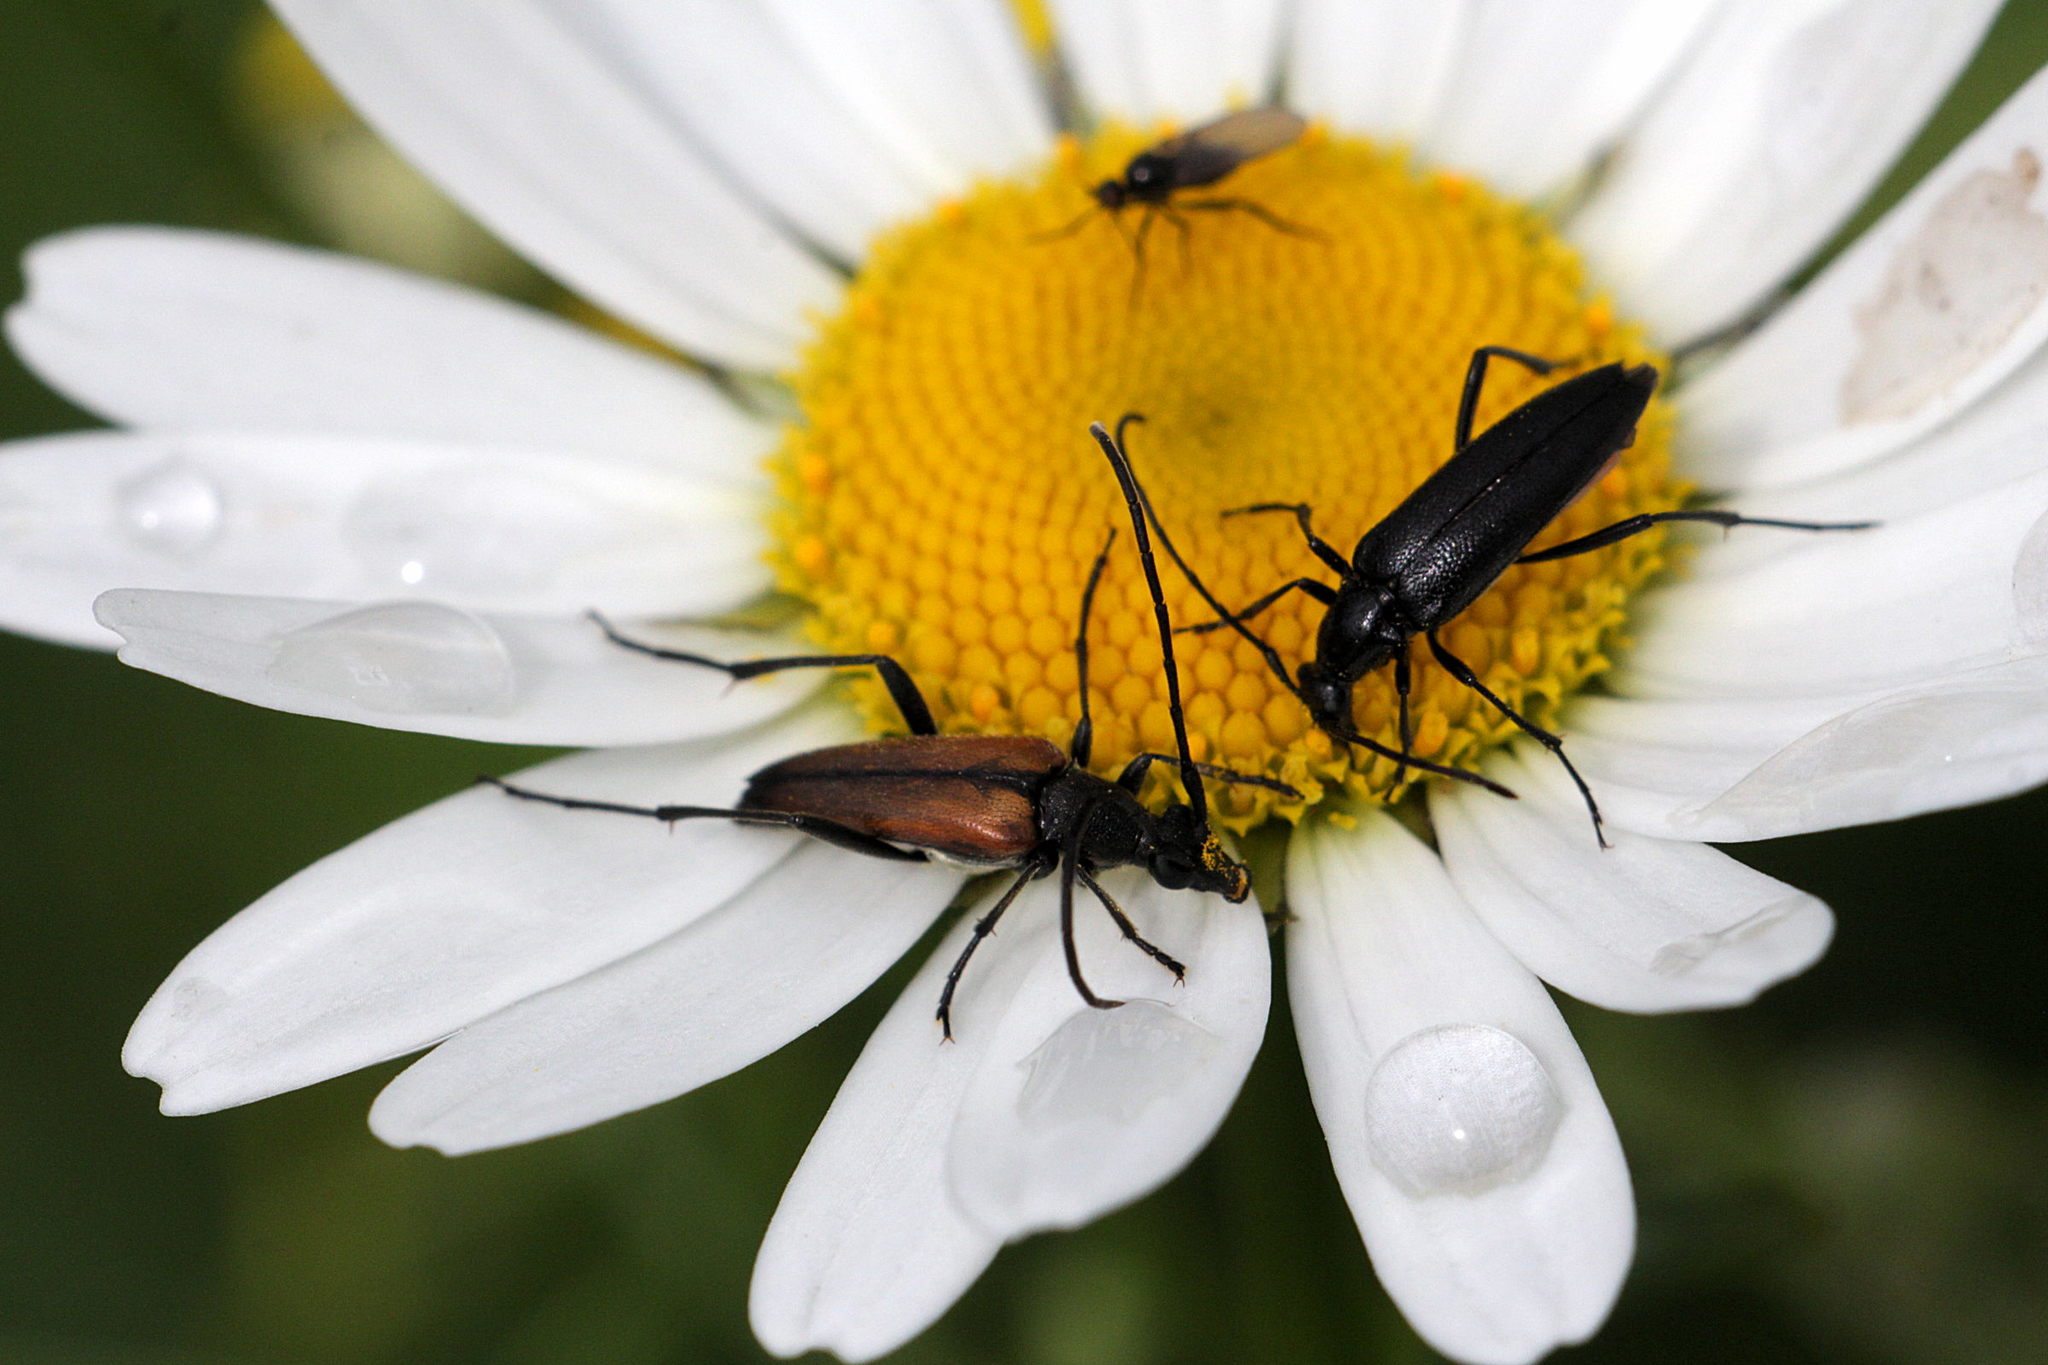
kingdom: Animalia
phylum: Arthropoda
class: Insecta
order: Coleoptera
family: Cerambycidae
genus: Stenurella
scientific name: Stenurella melanura
